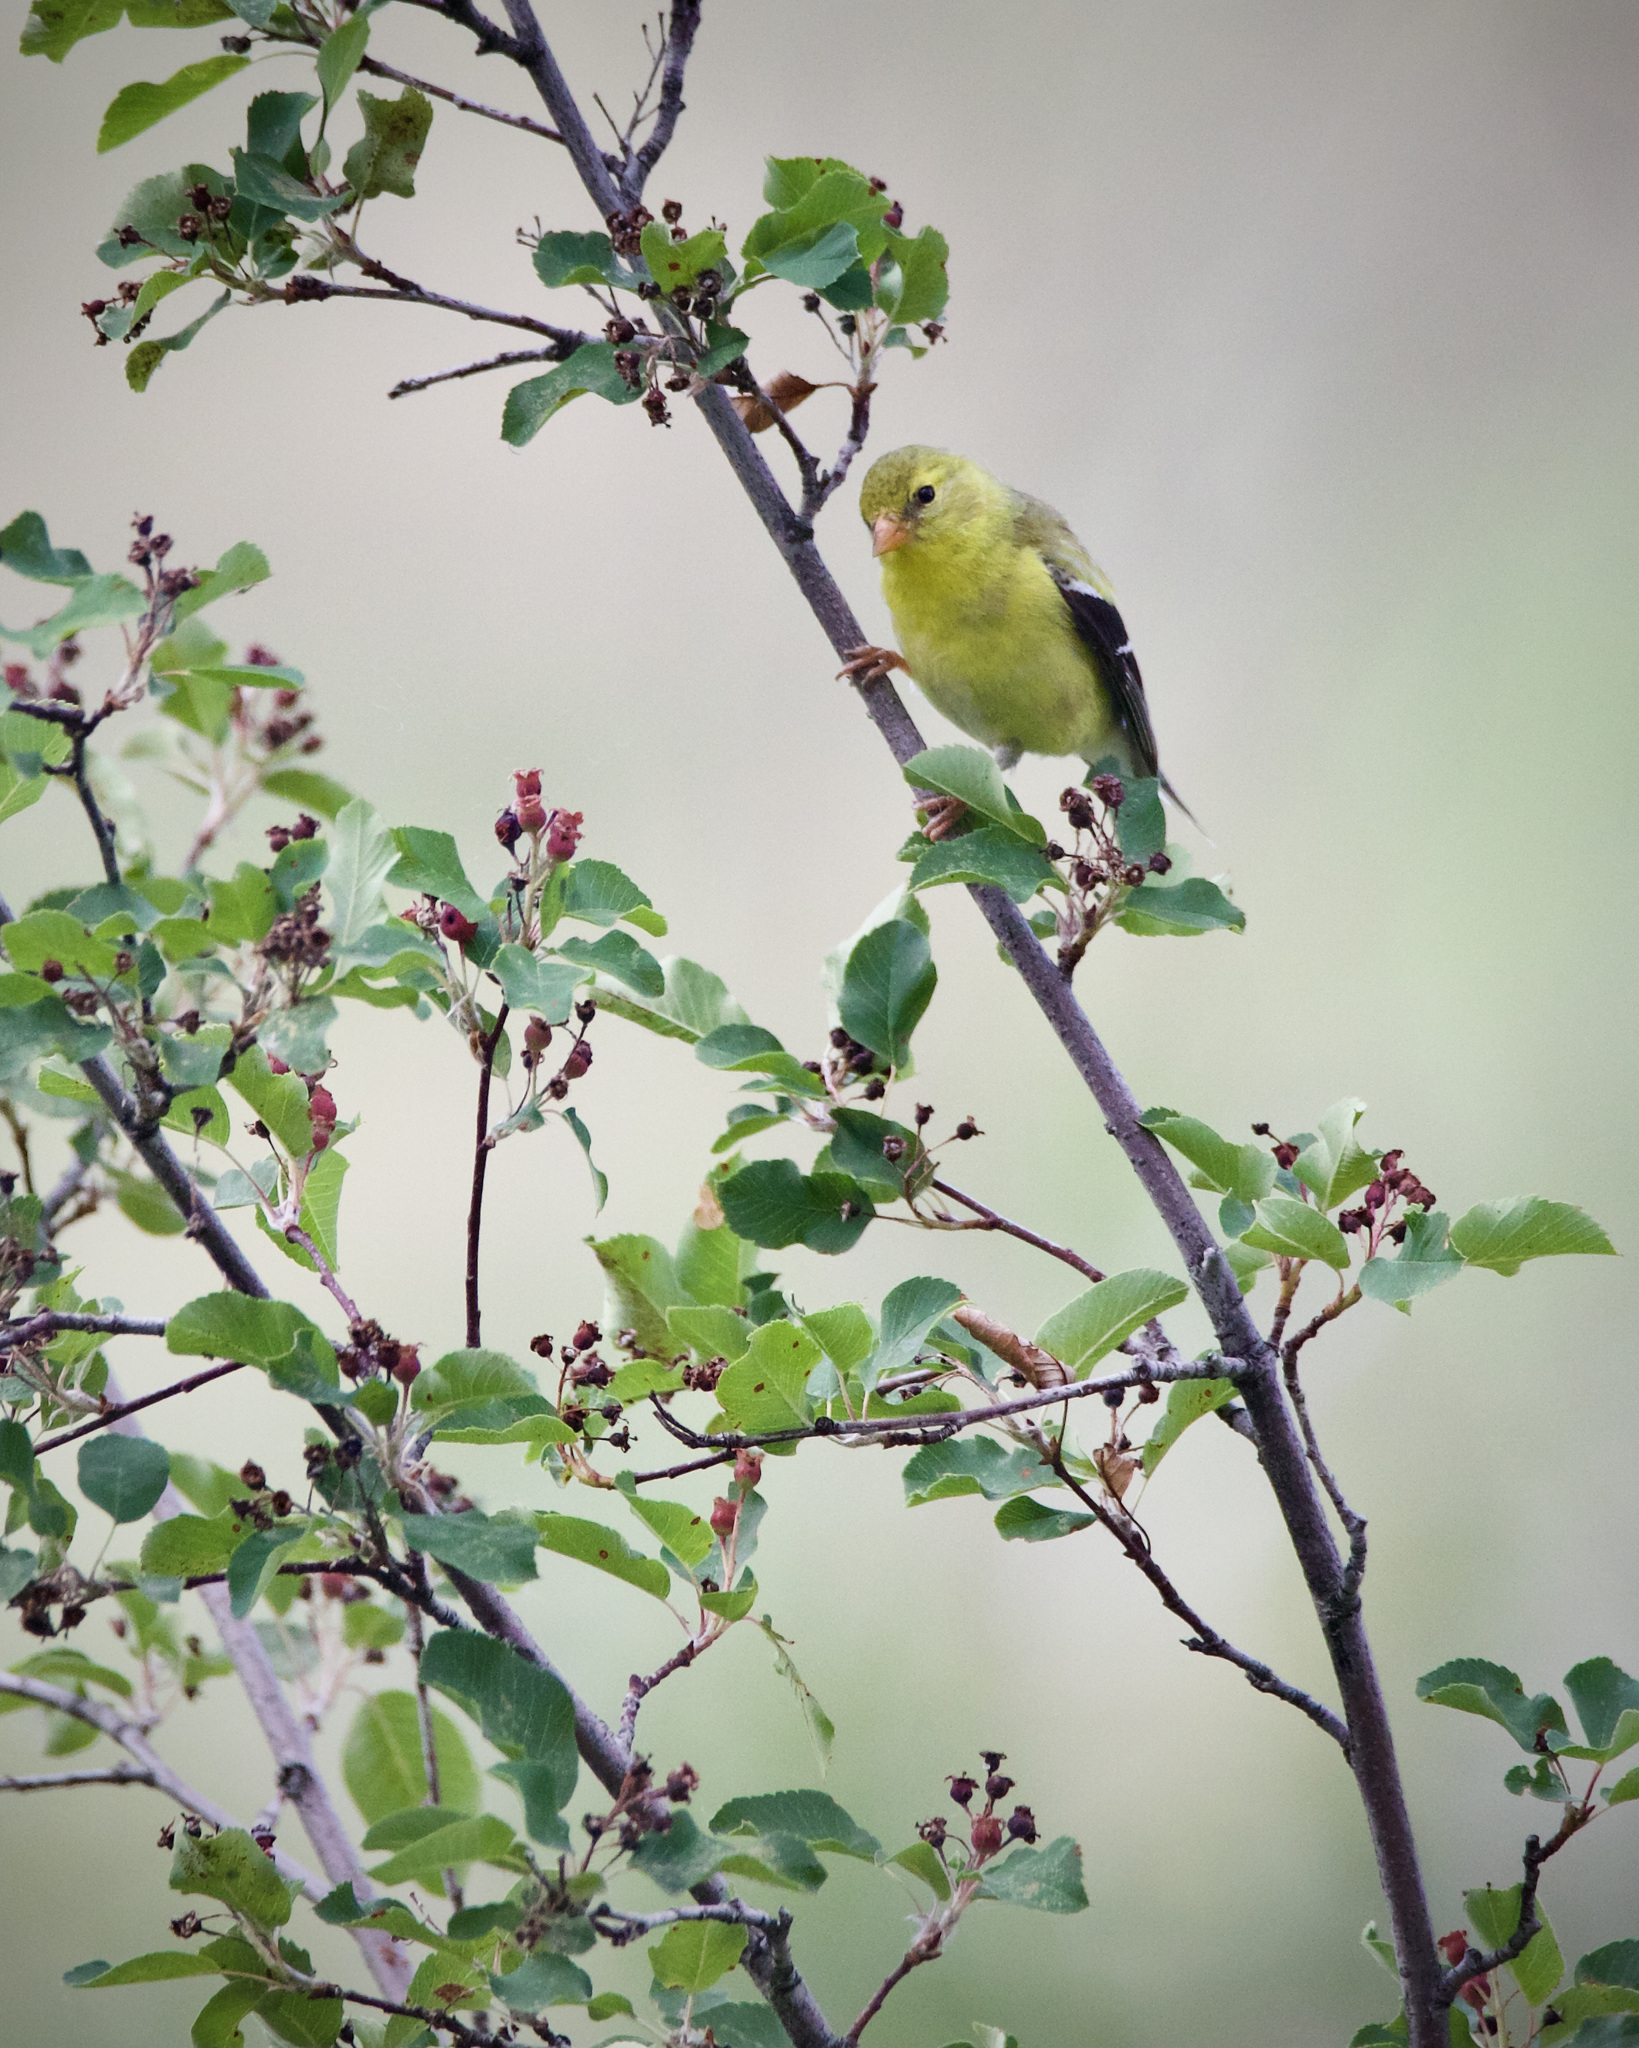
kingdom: Animalia
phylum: Chordata
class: Aves
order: Passeriformes
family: Fringillidae
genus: Spinus
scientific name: Spinus tristis
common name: American goldfinch
